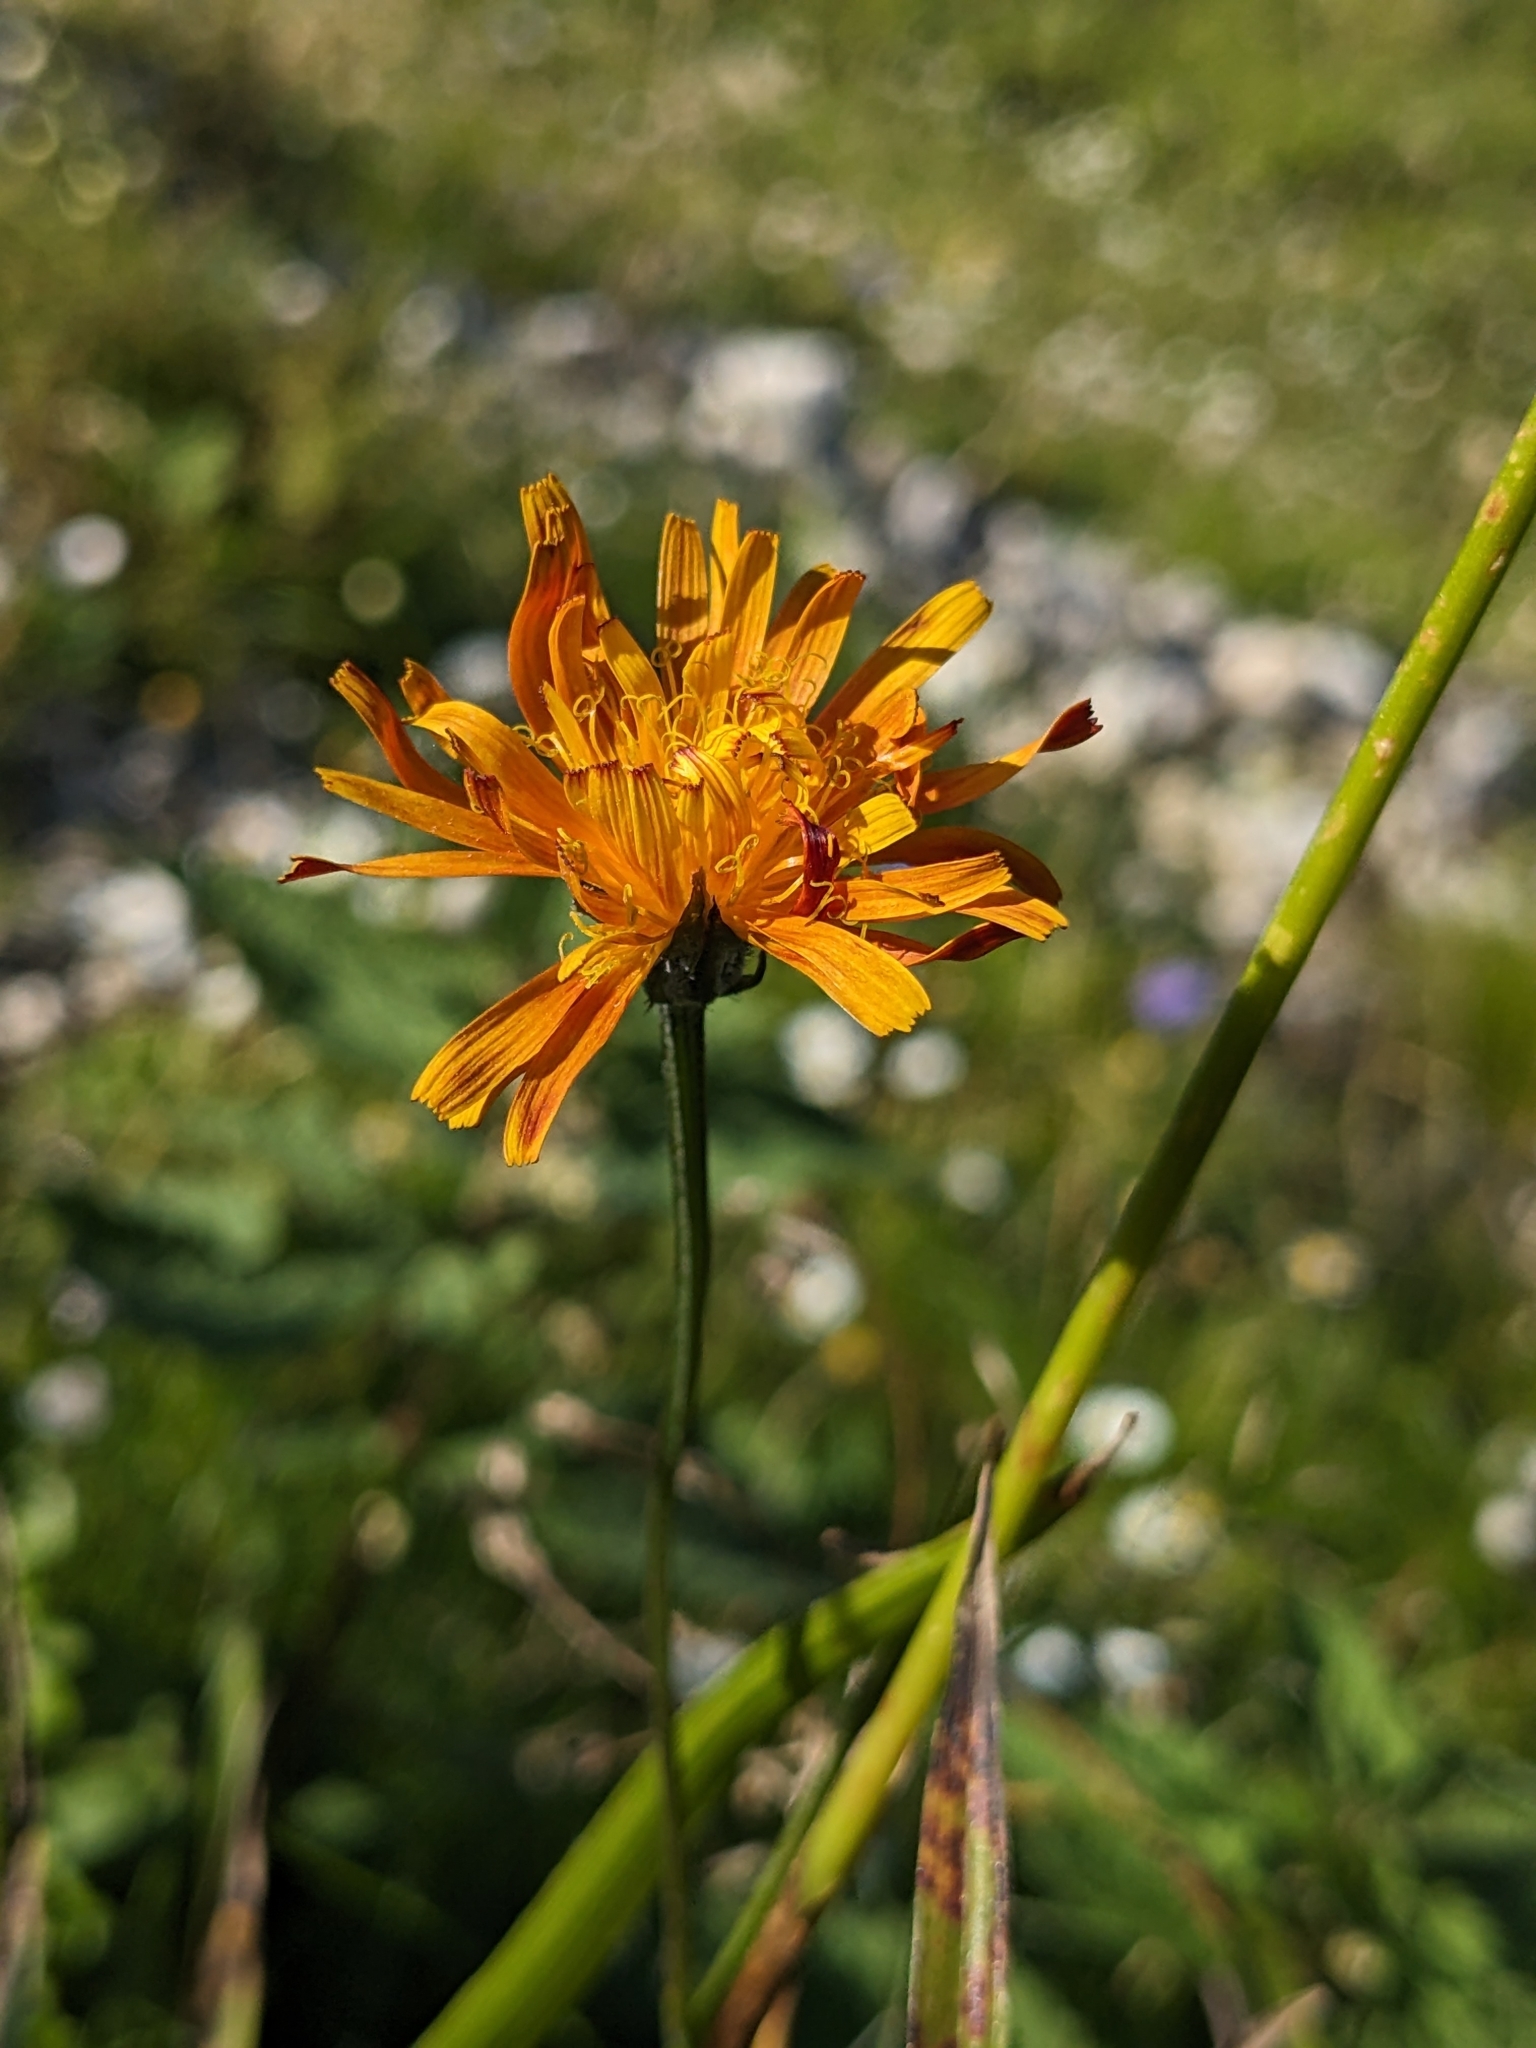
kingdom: Plantae
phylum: Tracheophyta
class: Magnoliopsida
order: Asterales
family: Asteraceae
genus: Crepis
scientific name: Crepis aurea
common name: Golden hawk's-beard
